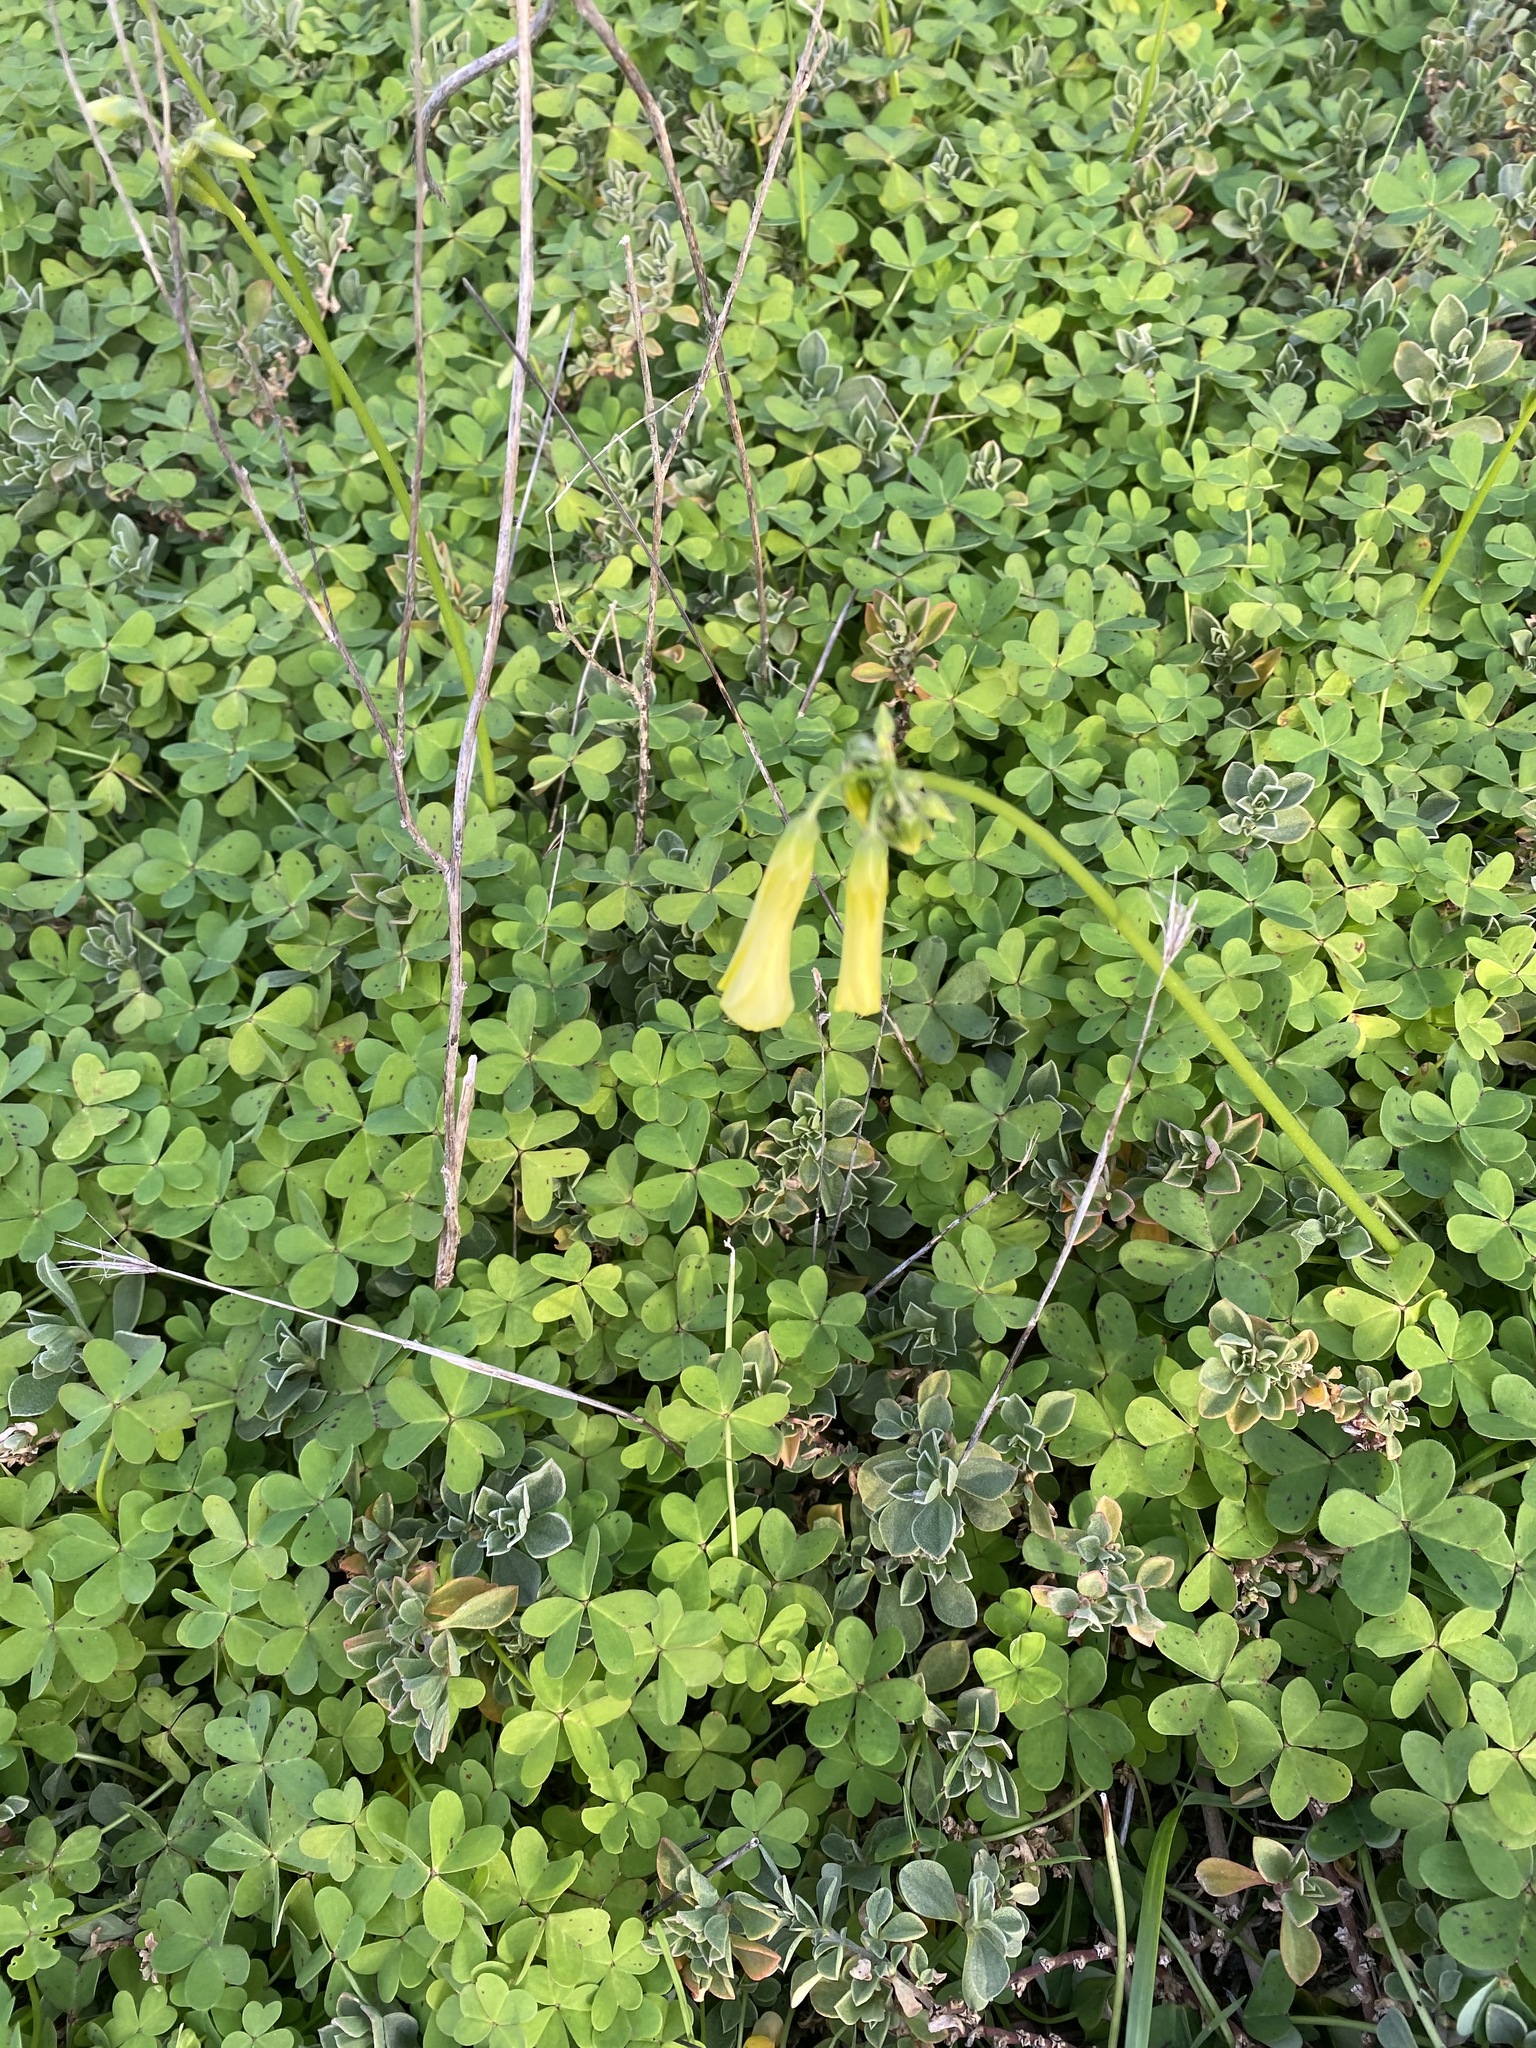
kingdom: Plantae
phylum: Tracheophyta
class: Magnoliopsida
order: Oxalidales
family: Oxalidaceae
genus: Oxalis
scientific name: Oxalis pes-caprae
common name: Bermuda-buttercup
